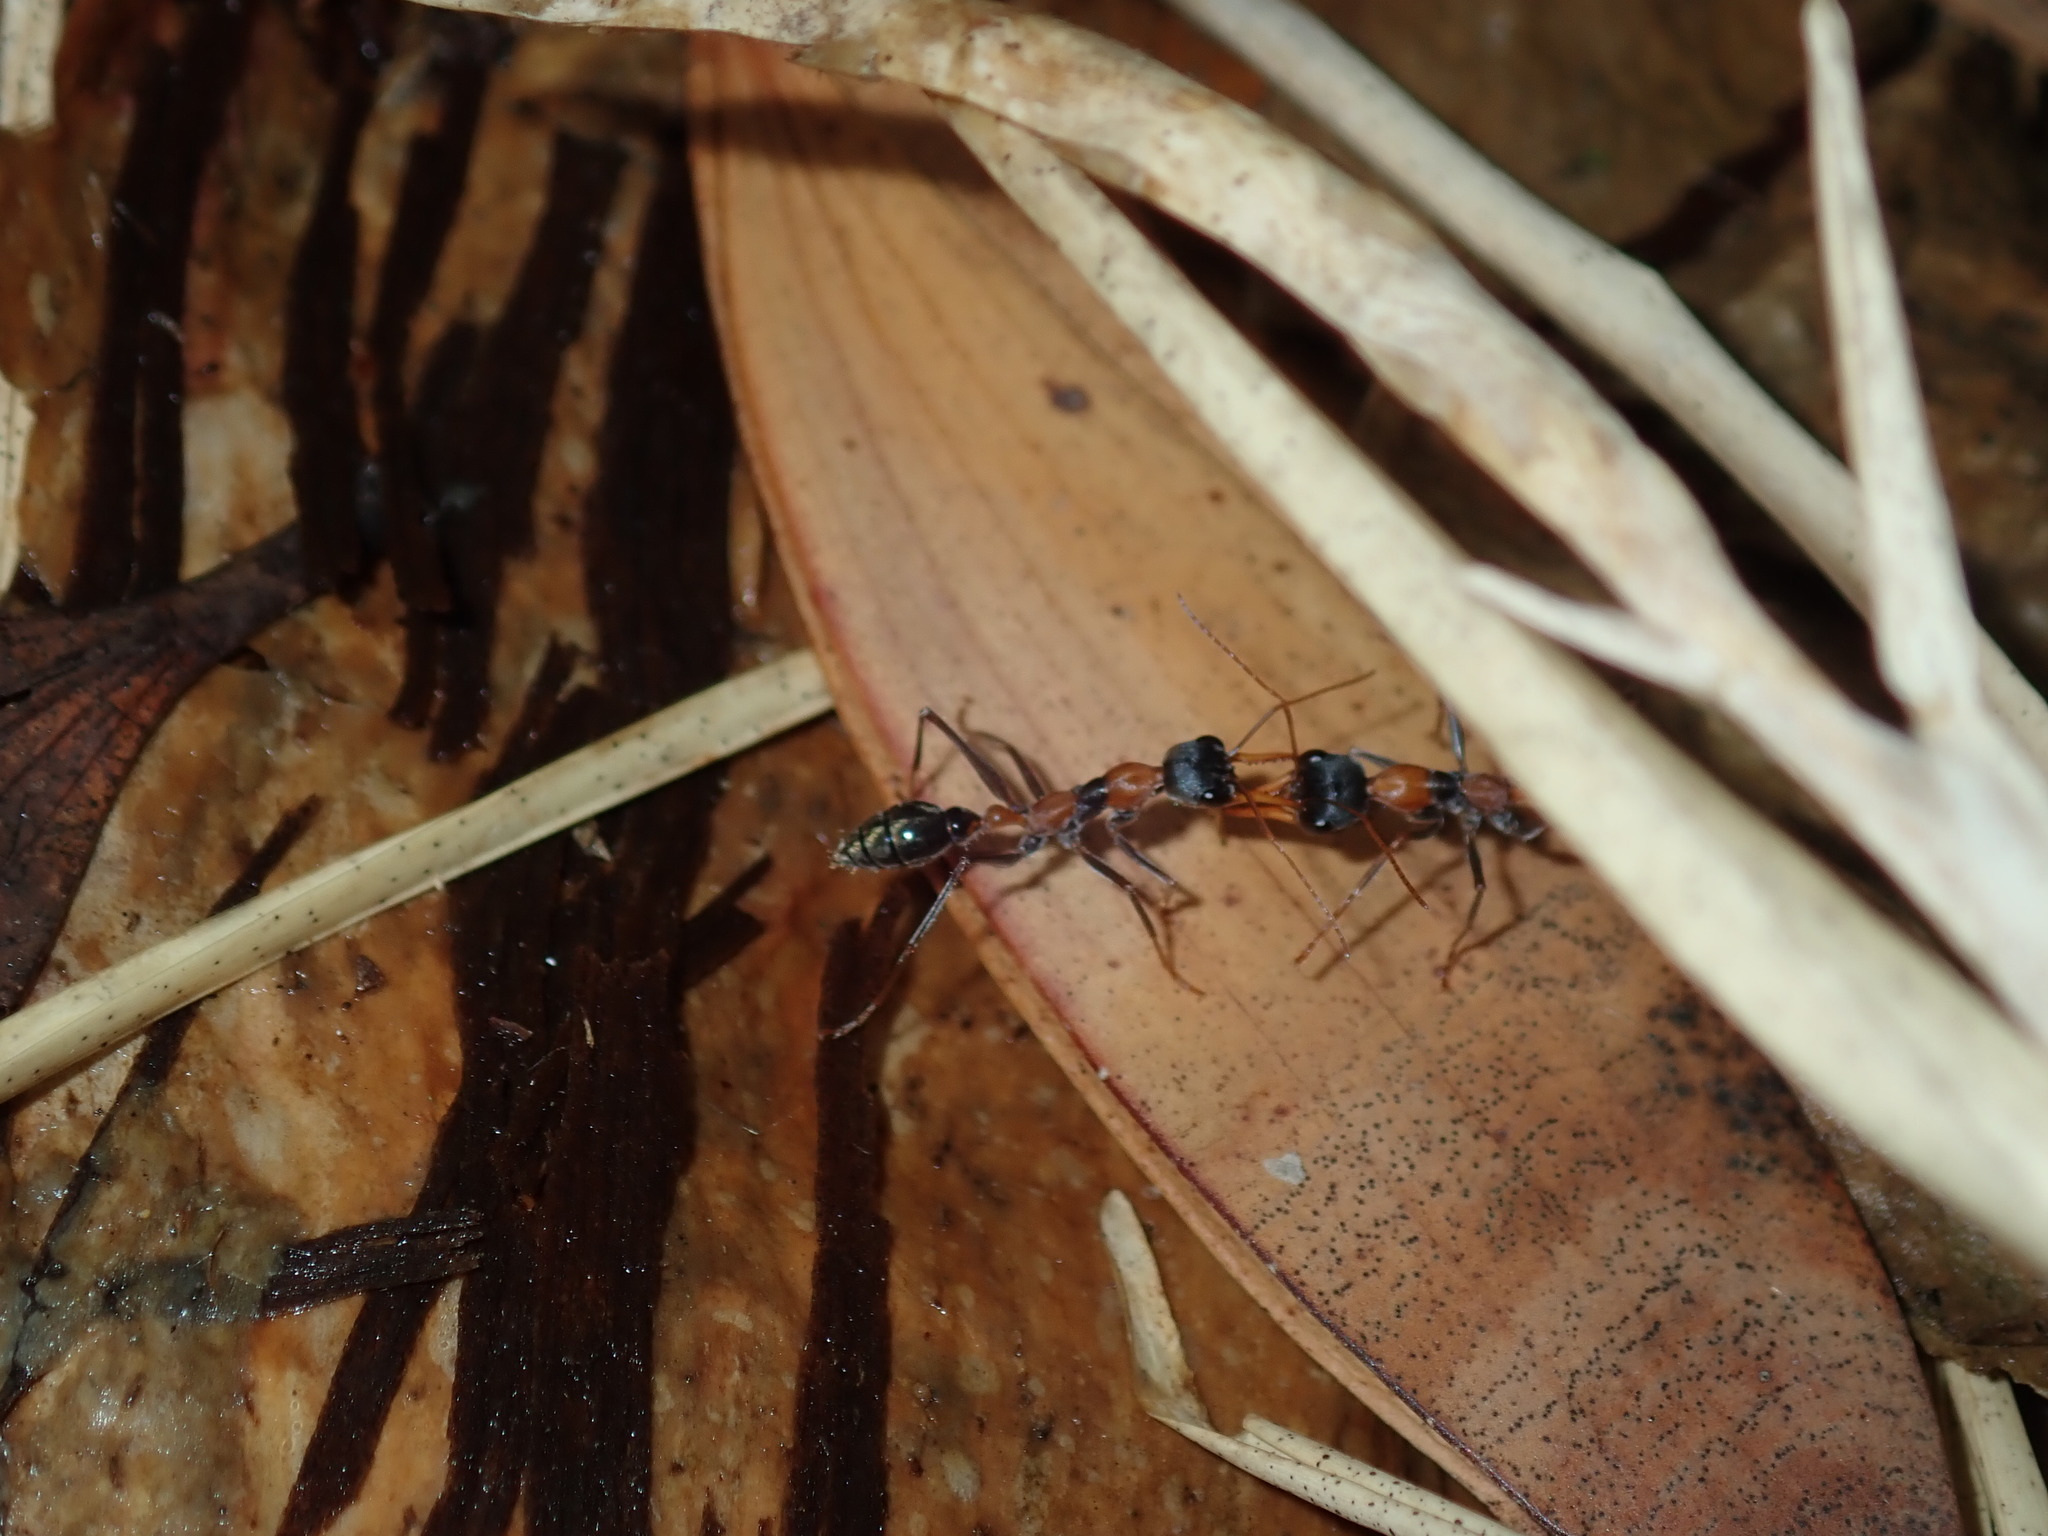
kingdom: Animalia
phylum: Arthropoda
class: Insecta
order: Hymenoptera
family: Formicidae
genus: Myrmecia
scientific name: Myrmecia nigrocincta
